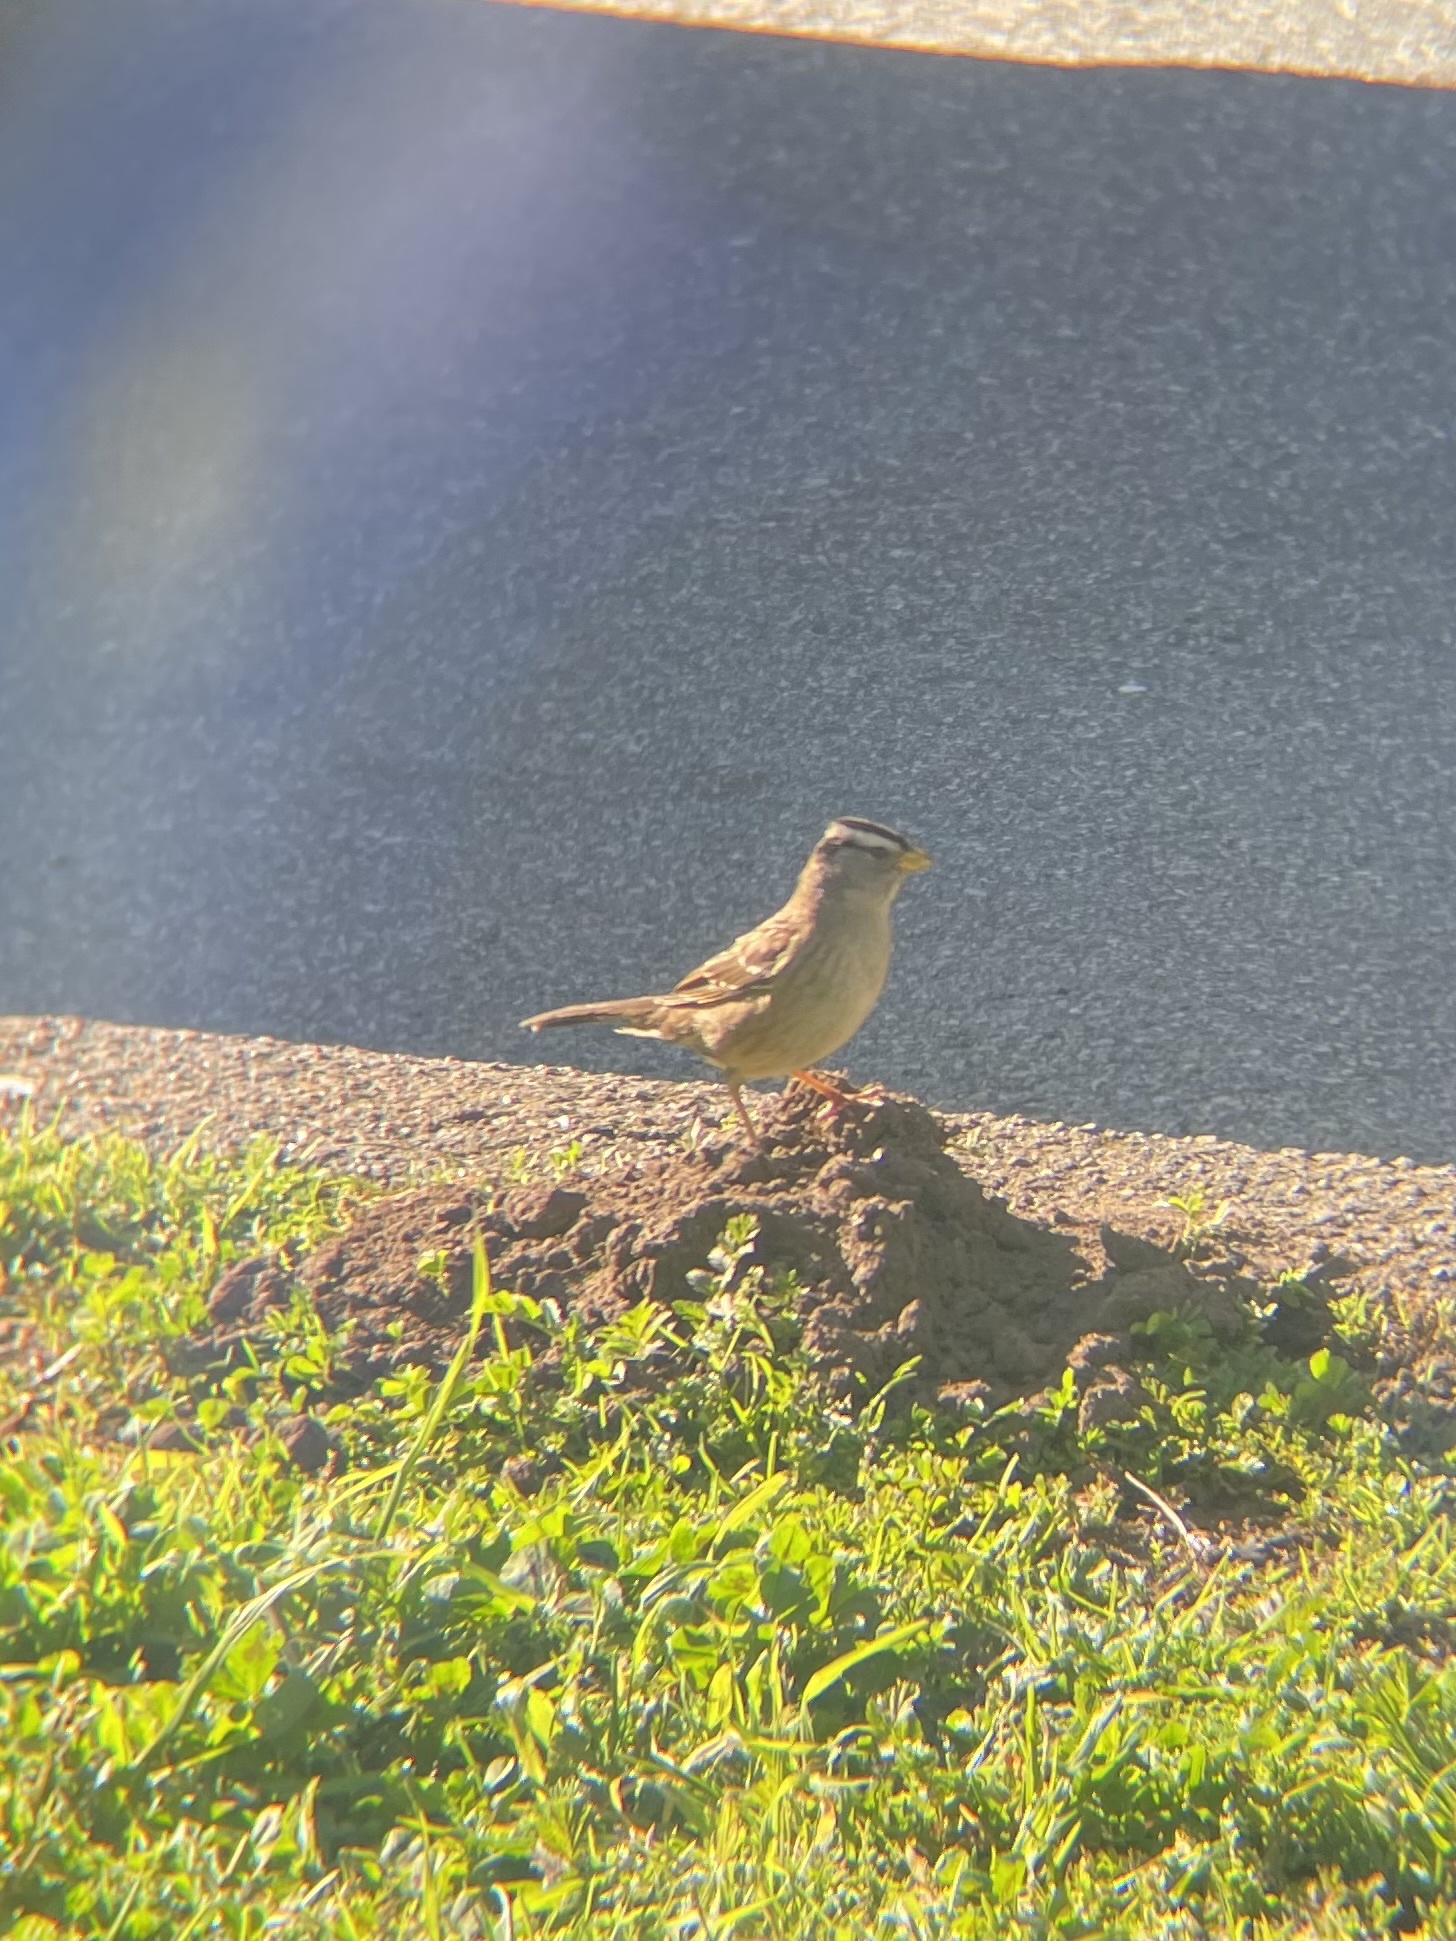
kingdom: Animalia
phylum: Chordata
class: Aves
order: Passeriformes
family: Passerellidae
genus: Zonotrichia
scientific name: Zonotrichia leucophrys
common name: White-crowned sparrow
